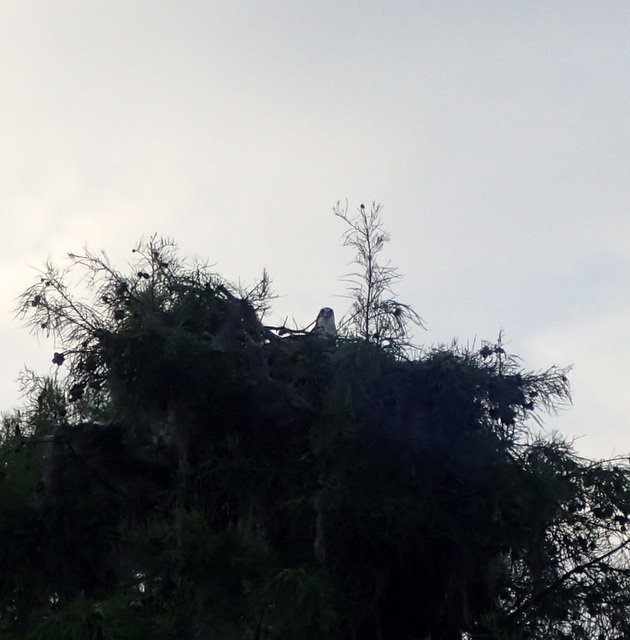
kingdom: Animalia
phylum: Chordata
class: Aves
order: Accipitriformes
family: Pandionidae
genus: Pandion
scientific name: Pandion haliaetus
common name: Osprey
